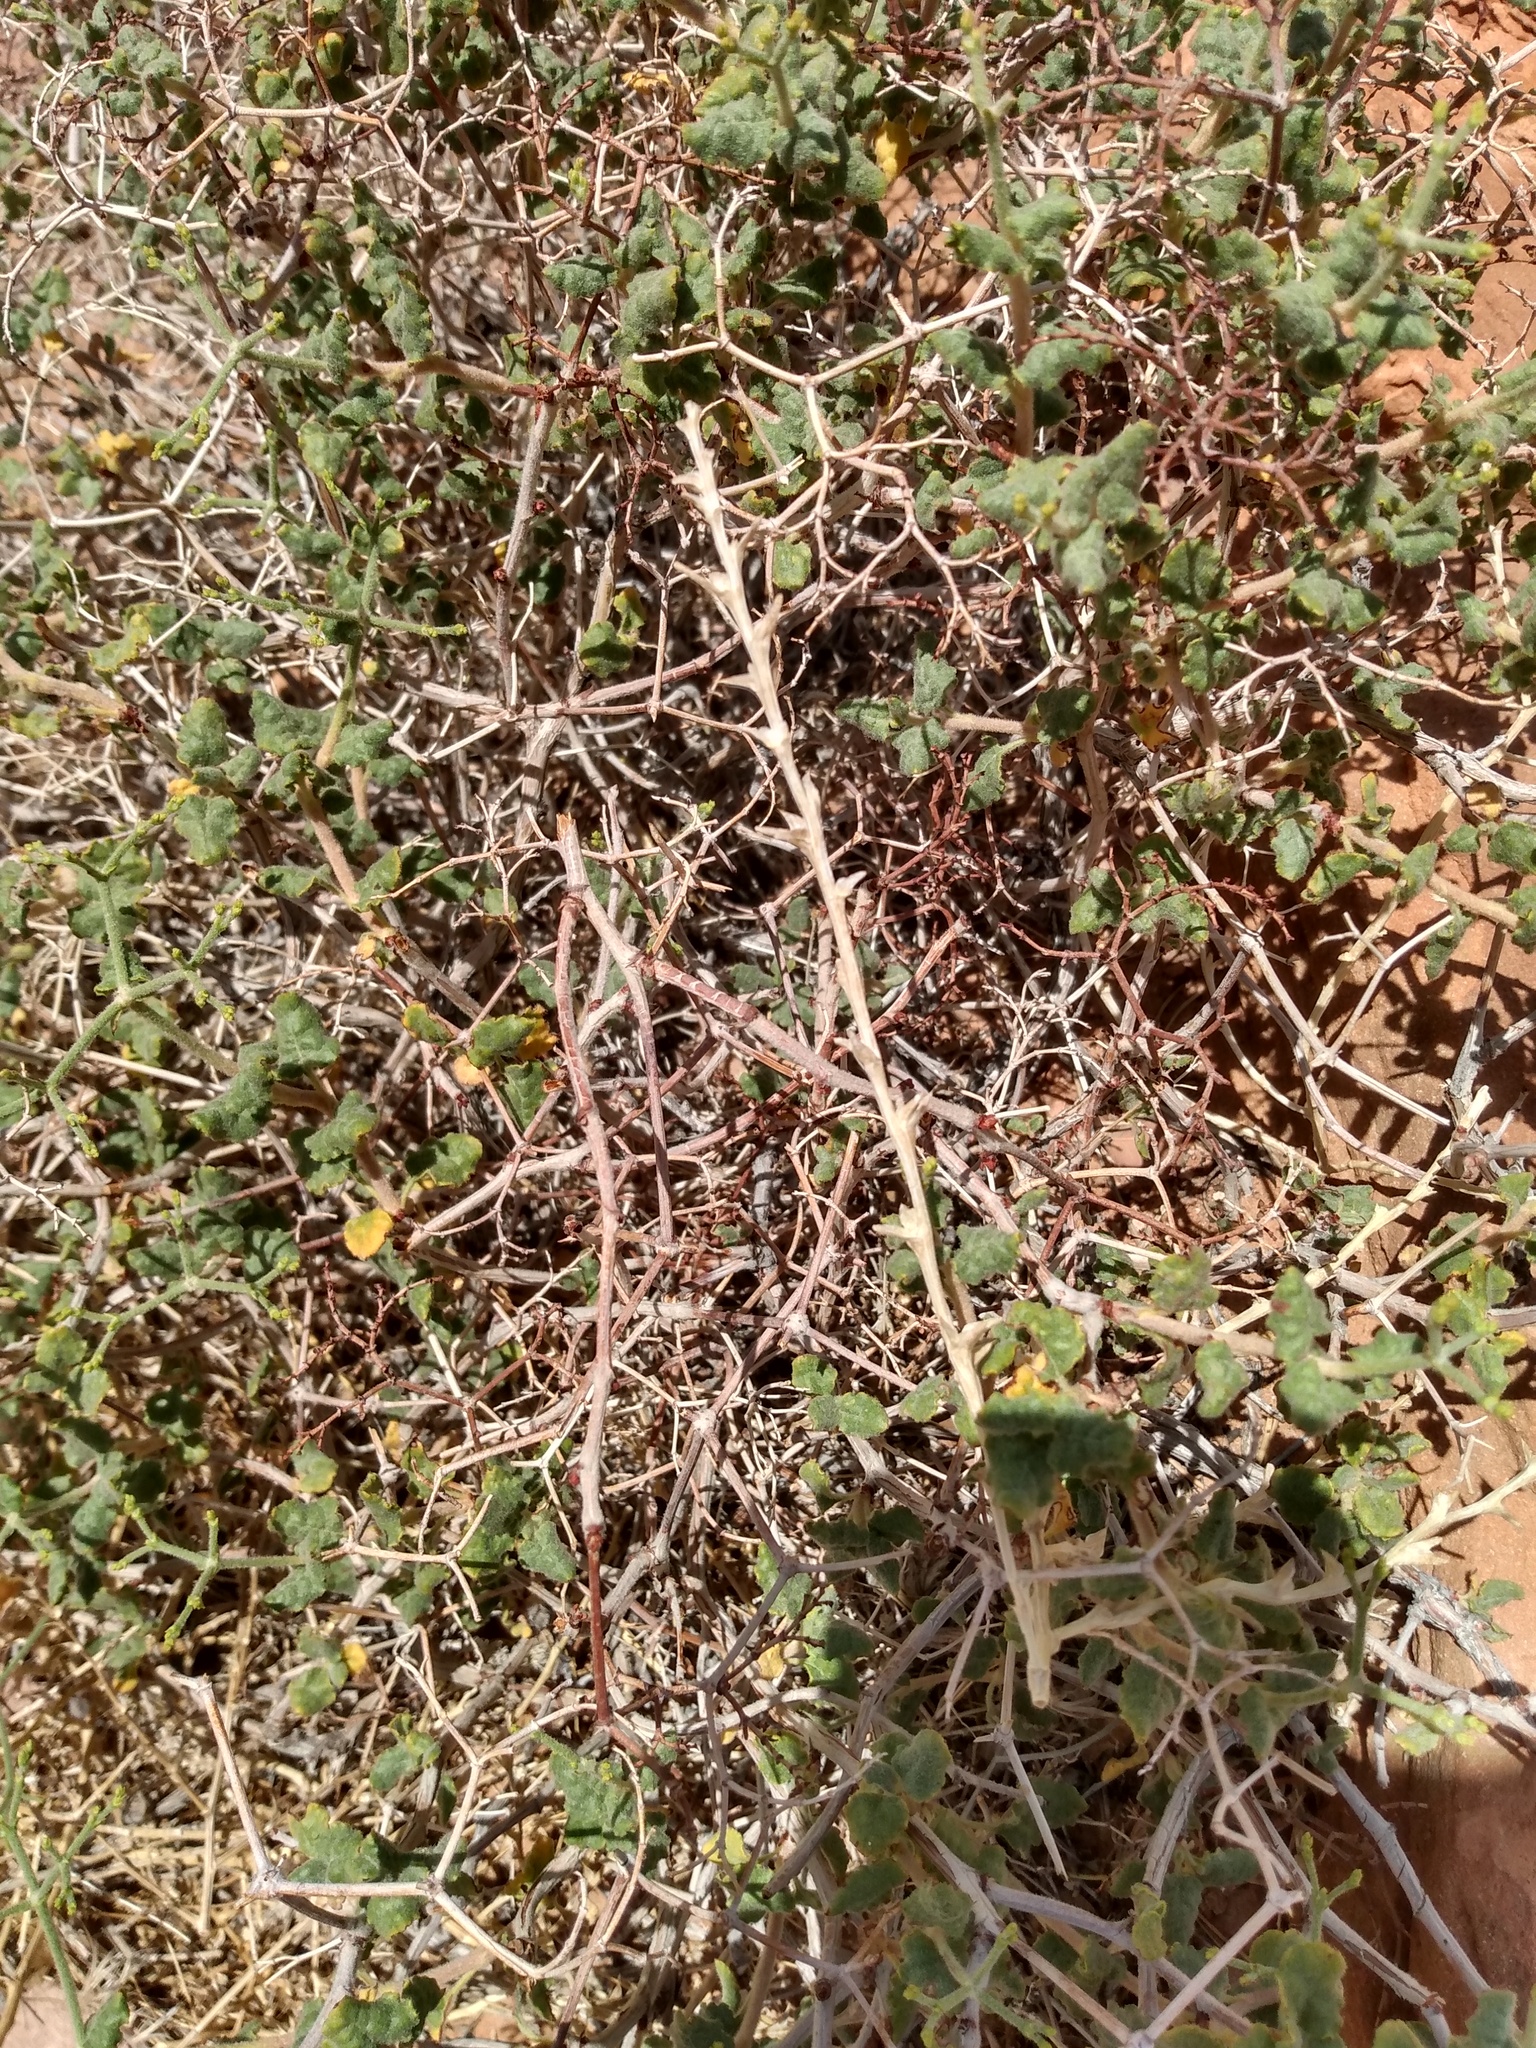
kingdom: Plantae
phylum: Tracheophyta
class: Magnoliopsida
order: Caryophyllales
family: Polygonaceae
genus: Eriogonum
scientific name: Eriogonum corymbosum
